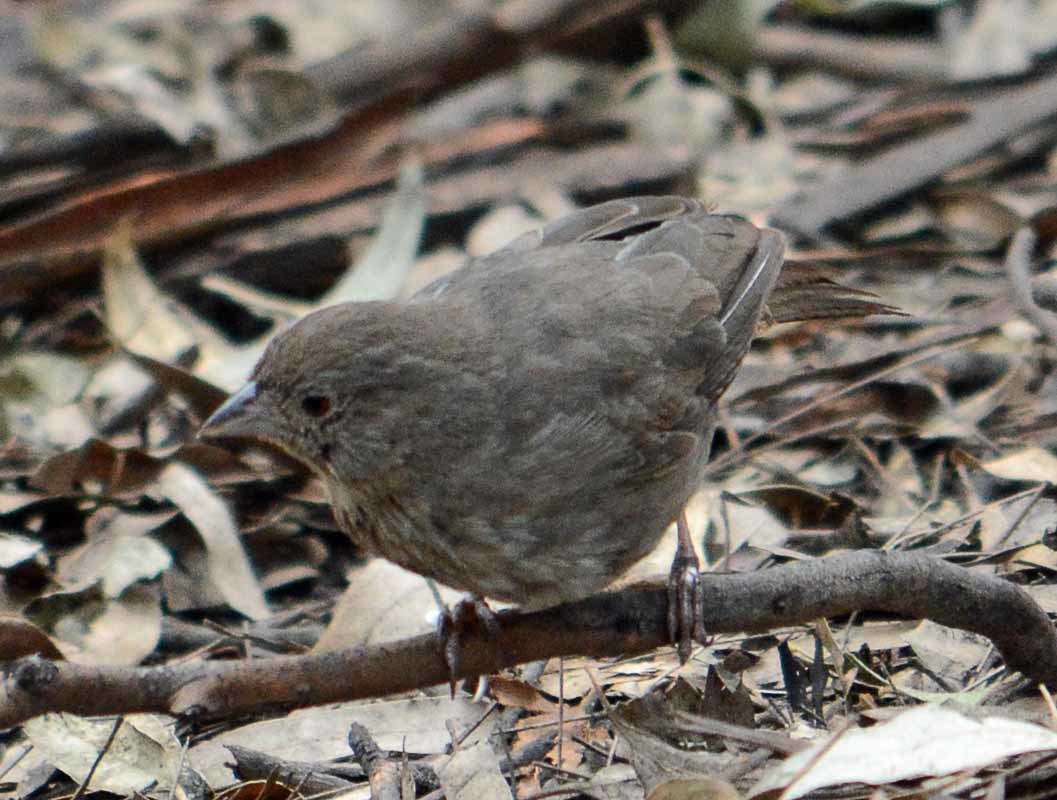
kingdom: Animalia
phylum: Chordata
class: Aves
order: Passeriformes
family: Passerellidae
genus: Melozone
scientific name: Melozone fusca
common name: Canyon towhee
